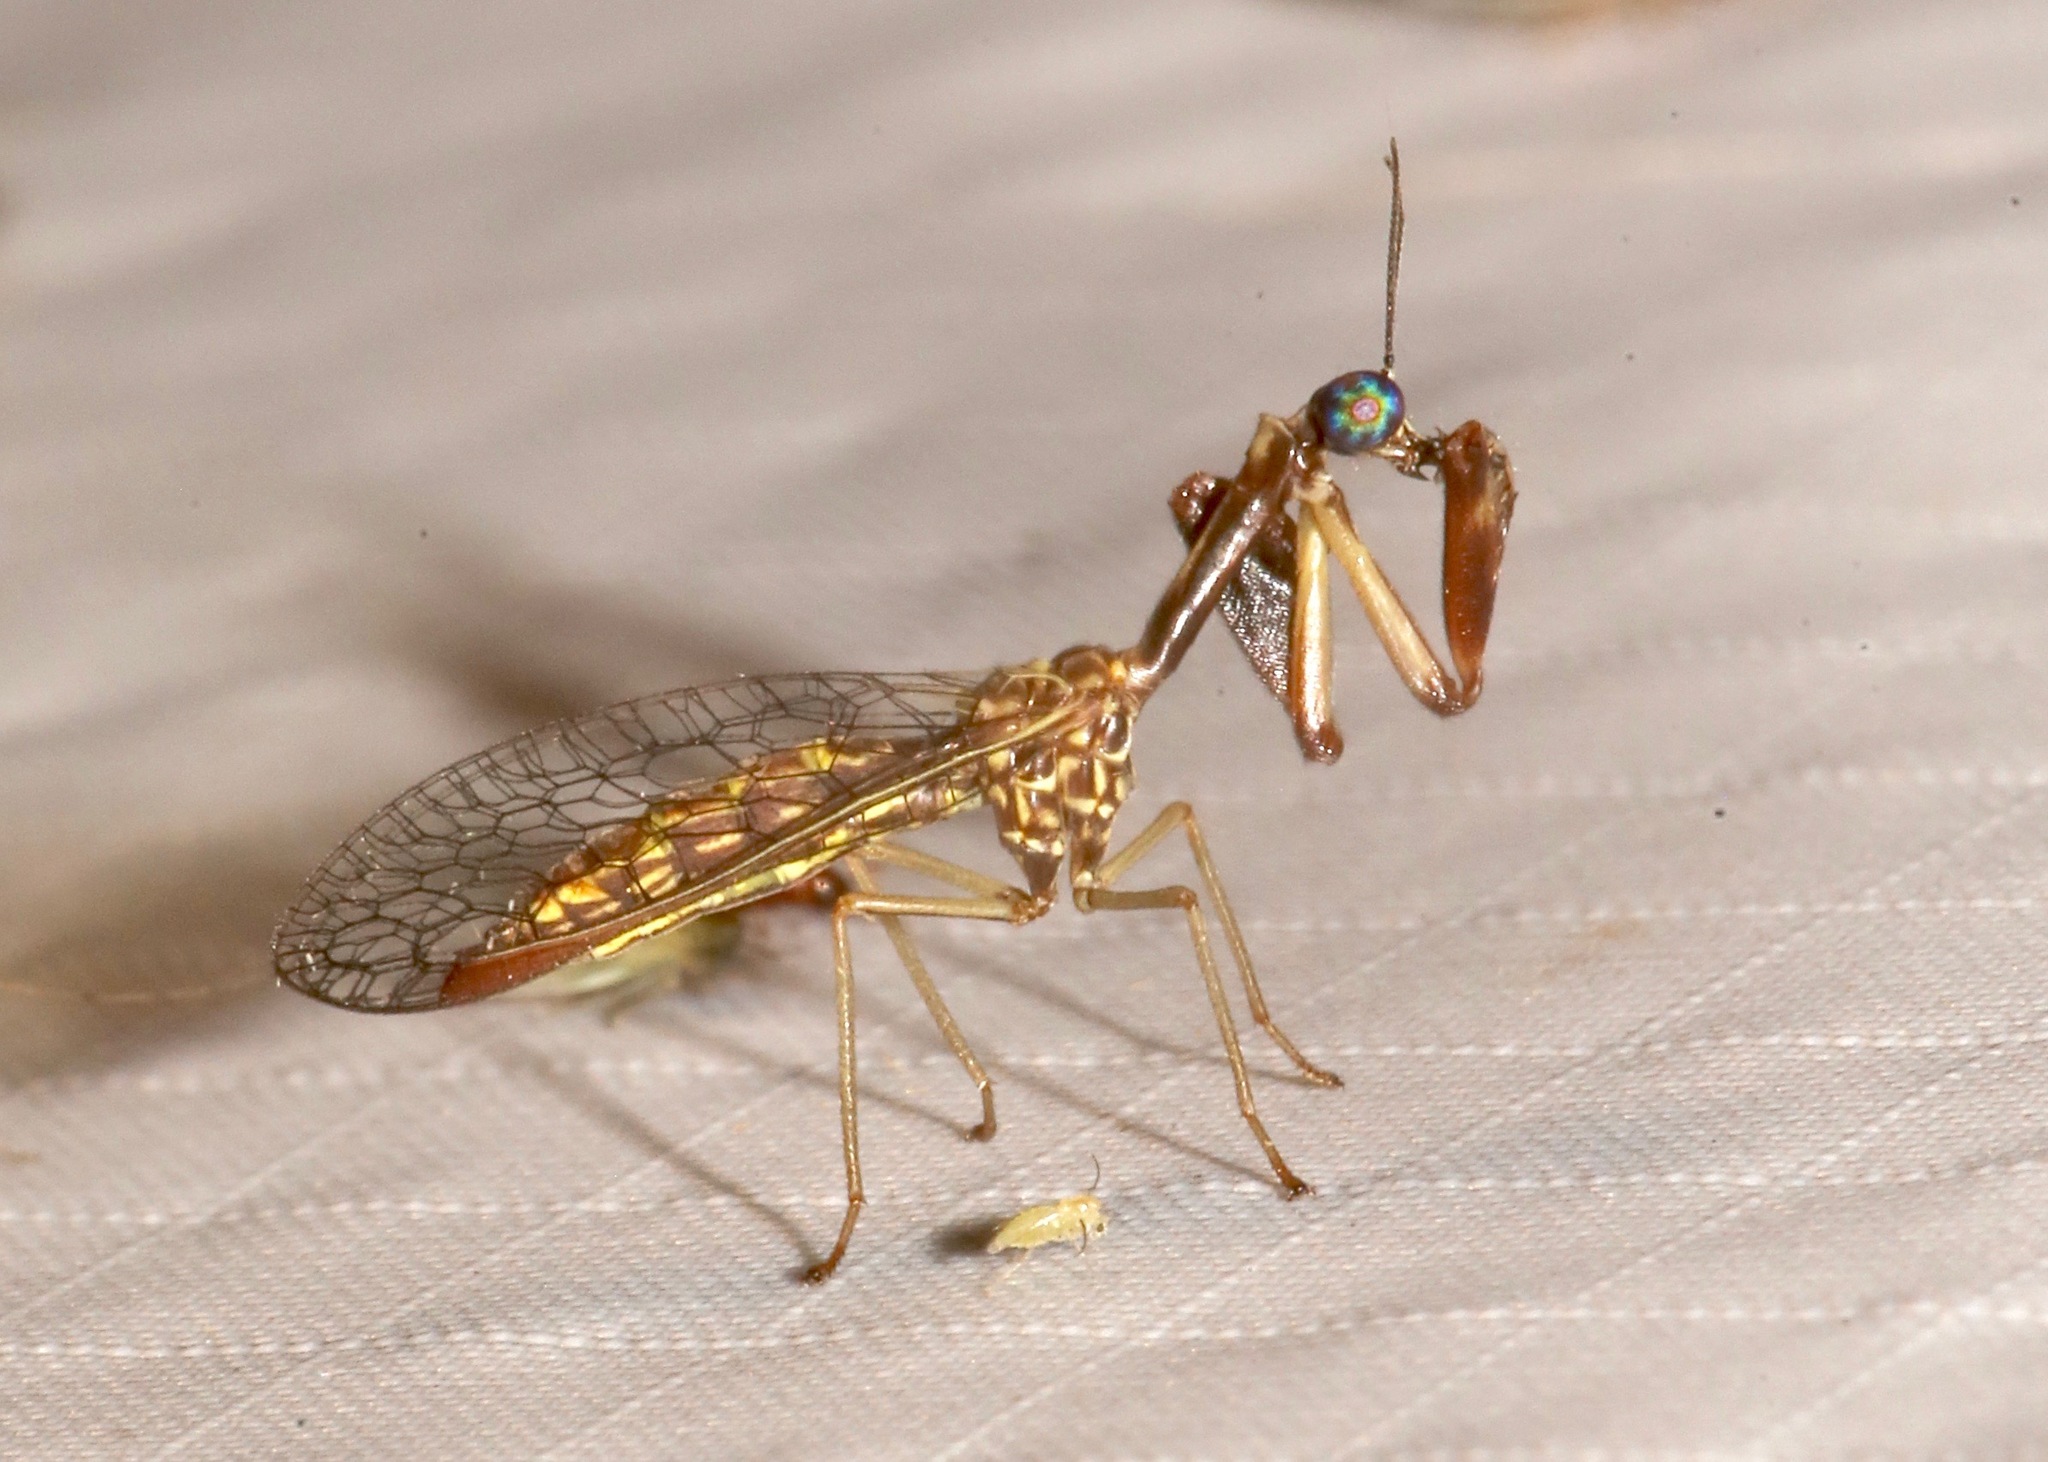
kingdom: Animalia
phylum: Arthropoda
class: Insecta
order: Neuroptera
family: Mantispidae
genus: Leptomantispa
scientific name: Leptomantispa pulchella
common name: Stevens's mantidfly
